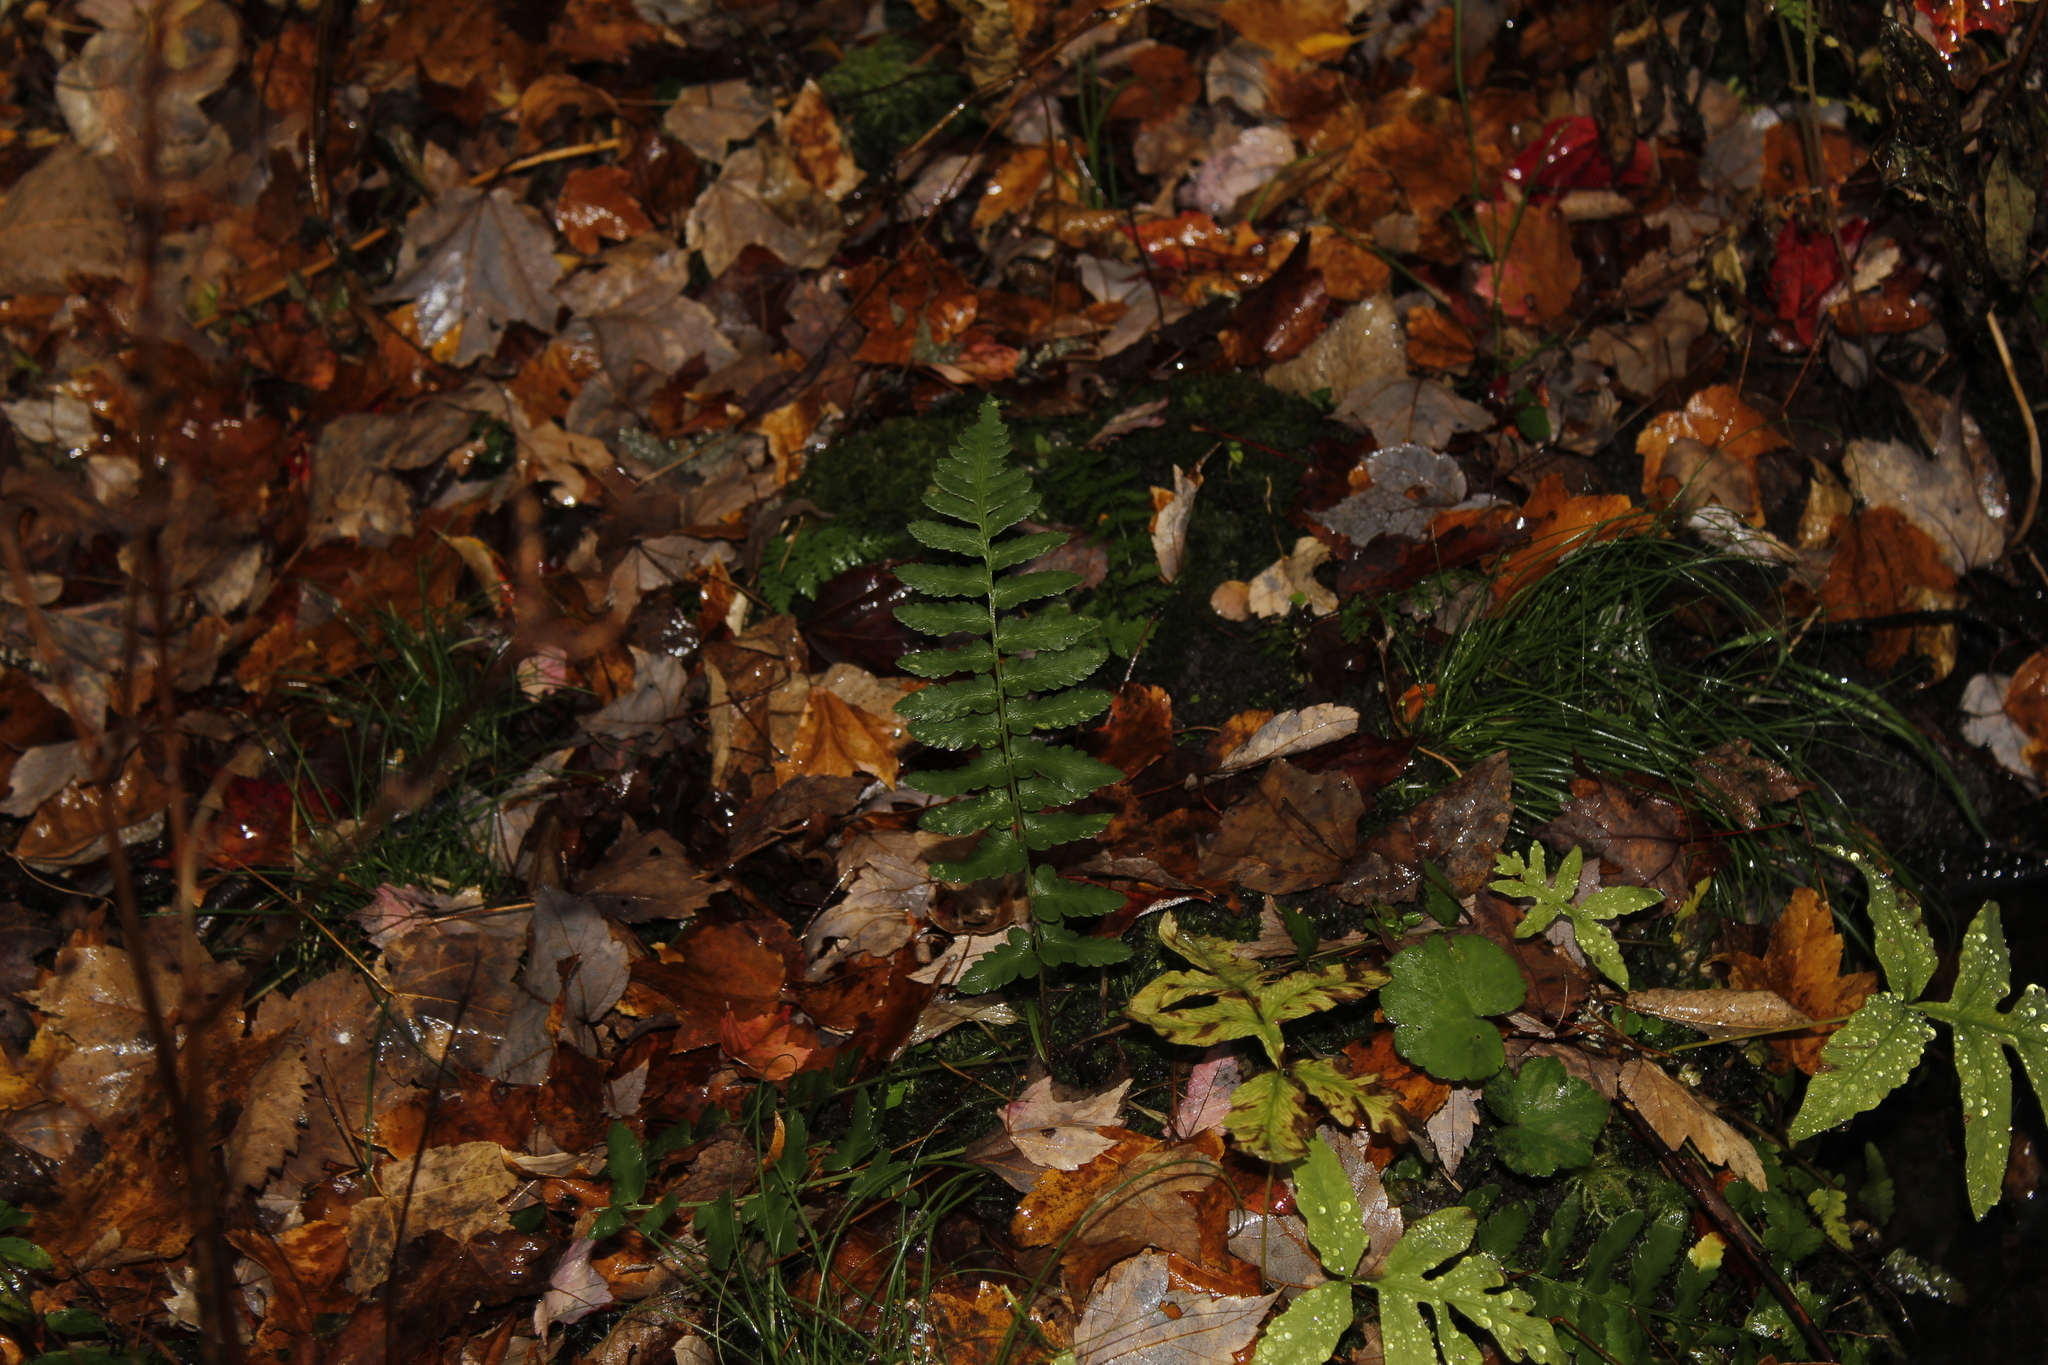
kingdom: Plantae
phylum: Tracheophyta
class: Polypodiopsida
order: Polypodiales
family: Dryopteridaceae
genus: Dryopteris
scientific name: Dryopteris cristata
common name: Crested wood fern
